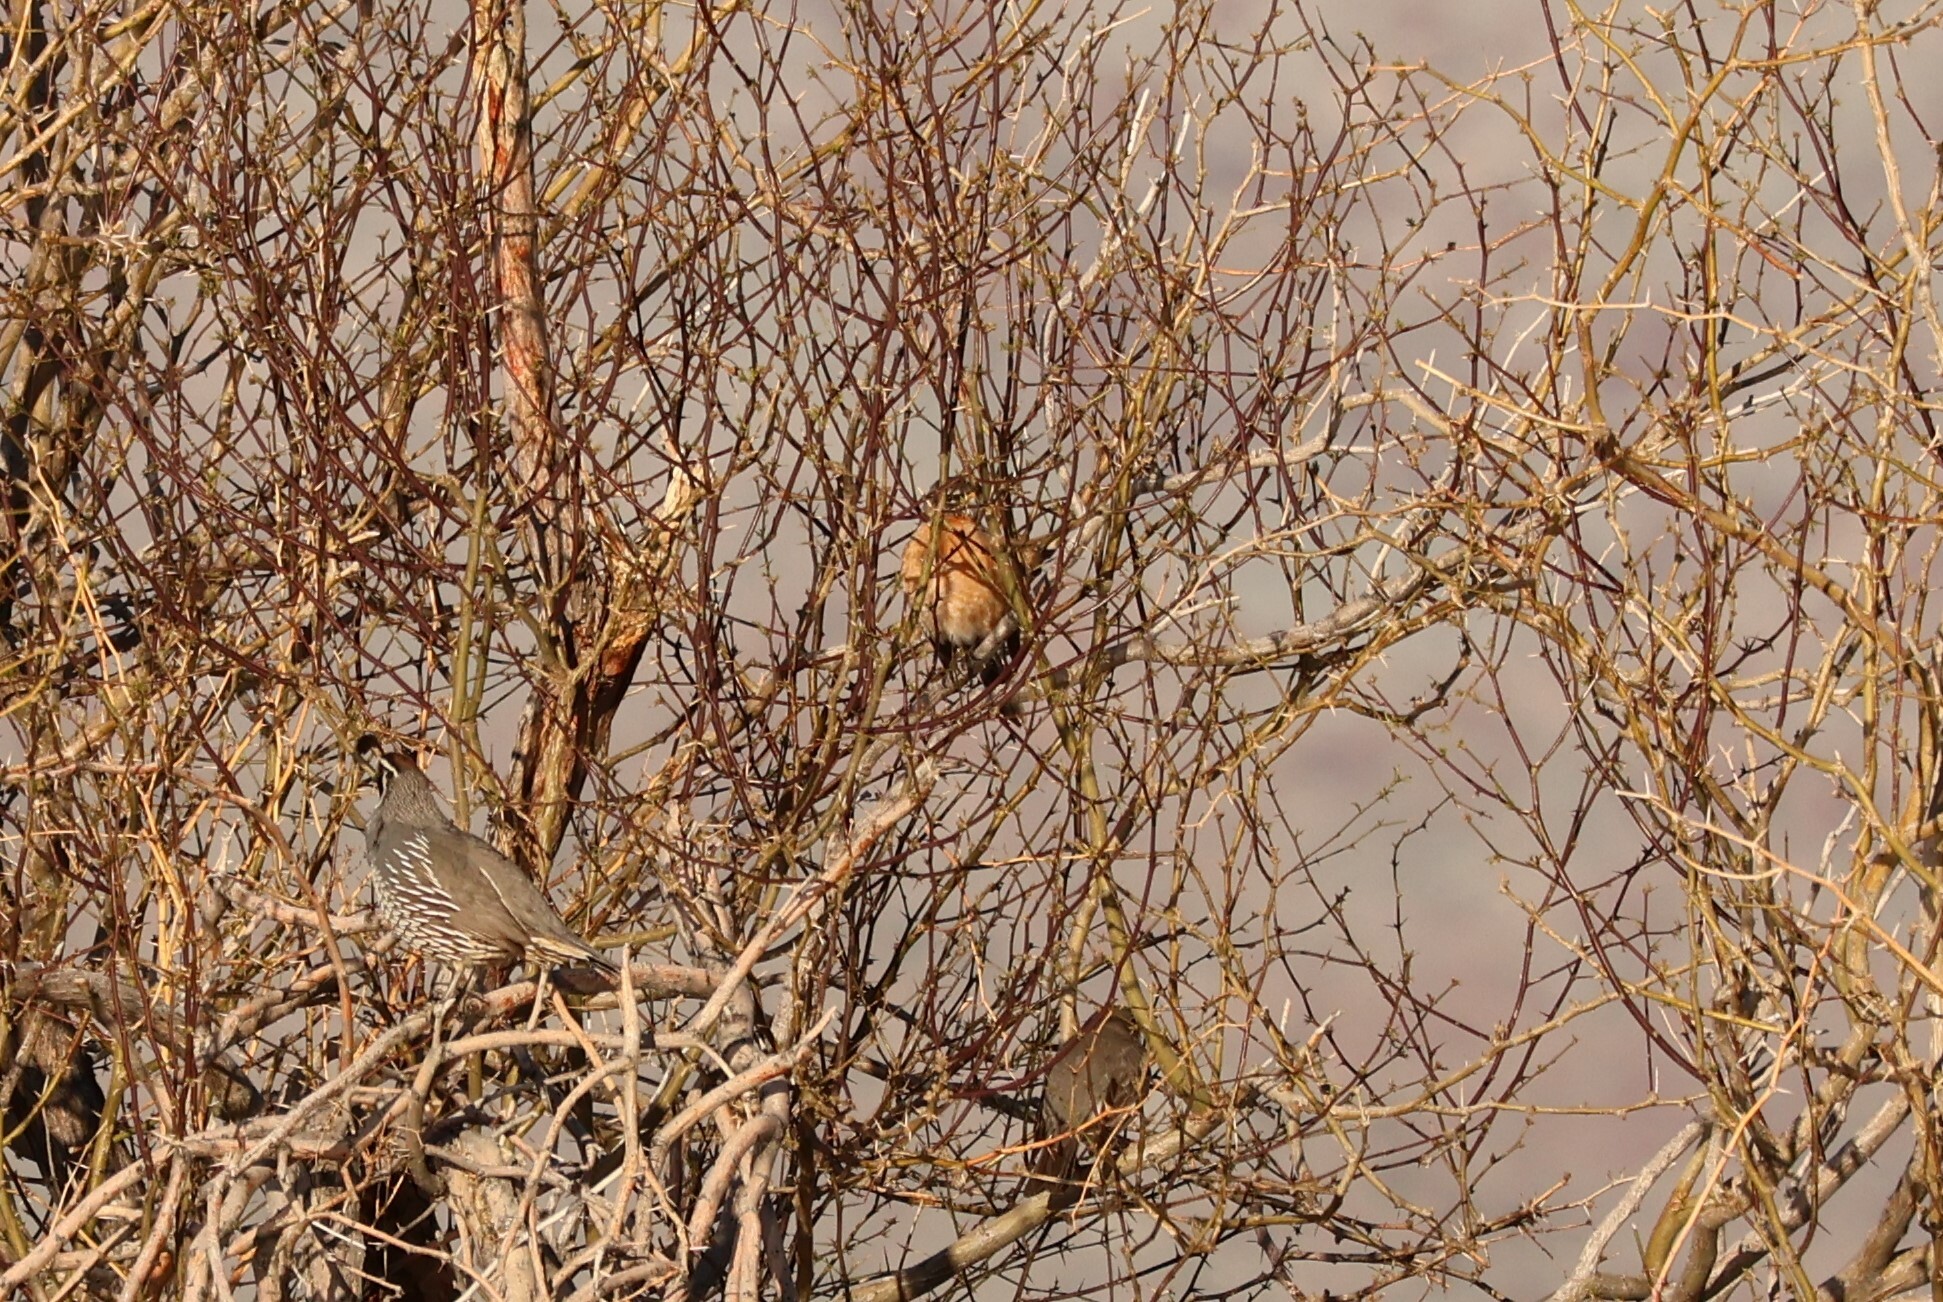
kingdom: Animalia
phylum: Chordata
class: Aves
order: Passeriformes
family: Turdidae
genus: Turdus
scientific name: Turdus migratorius
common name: American robin
